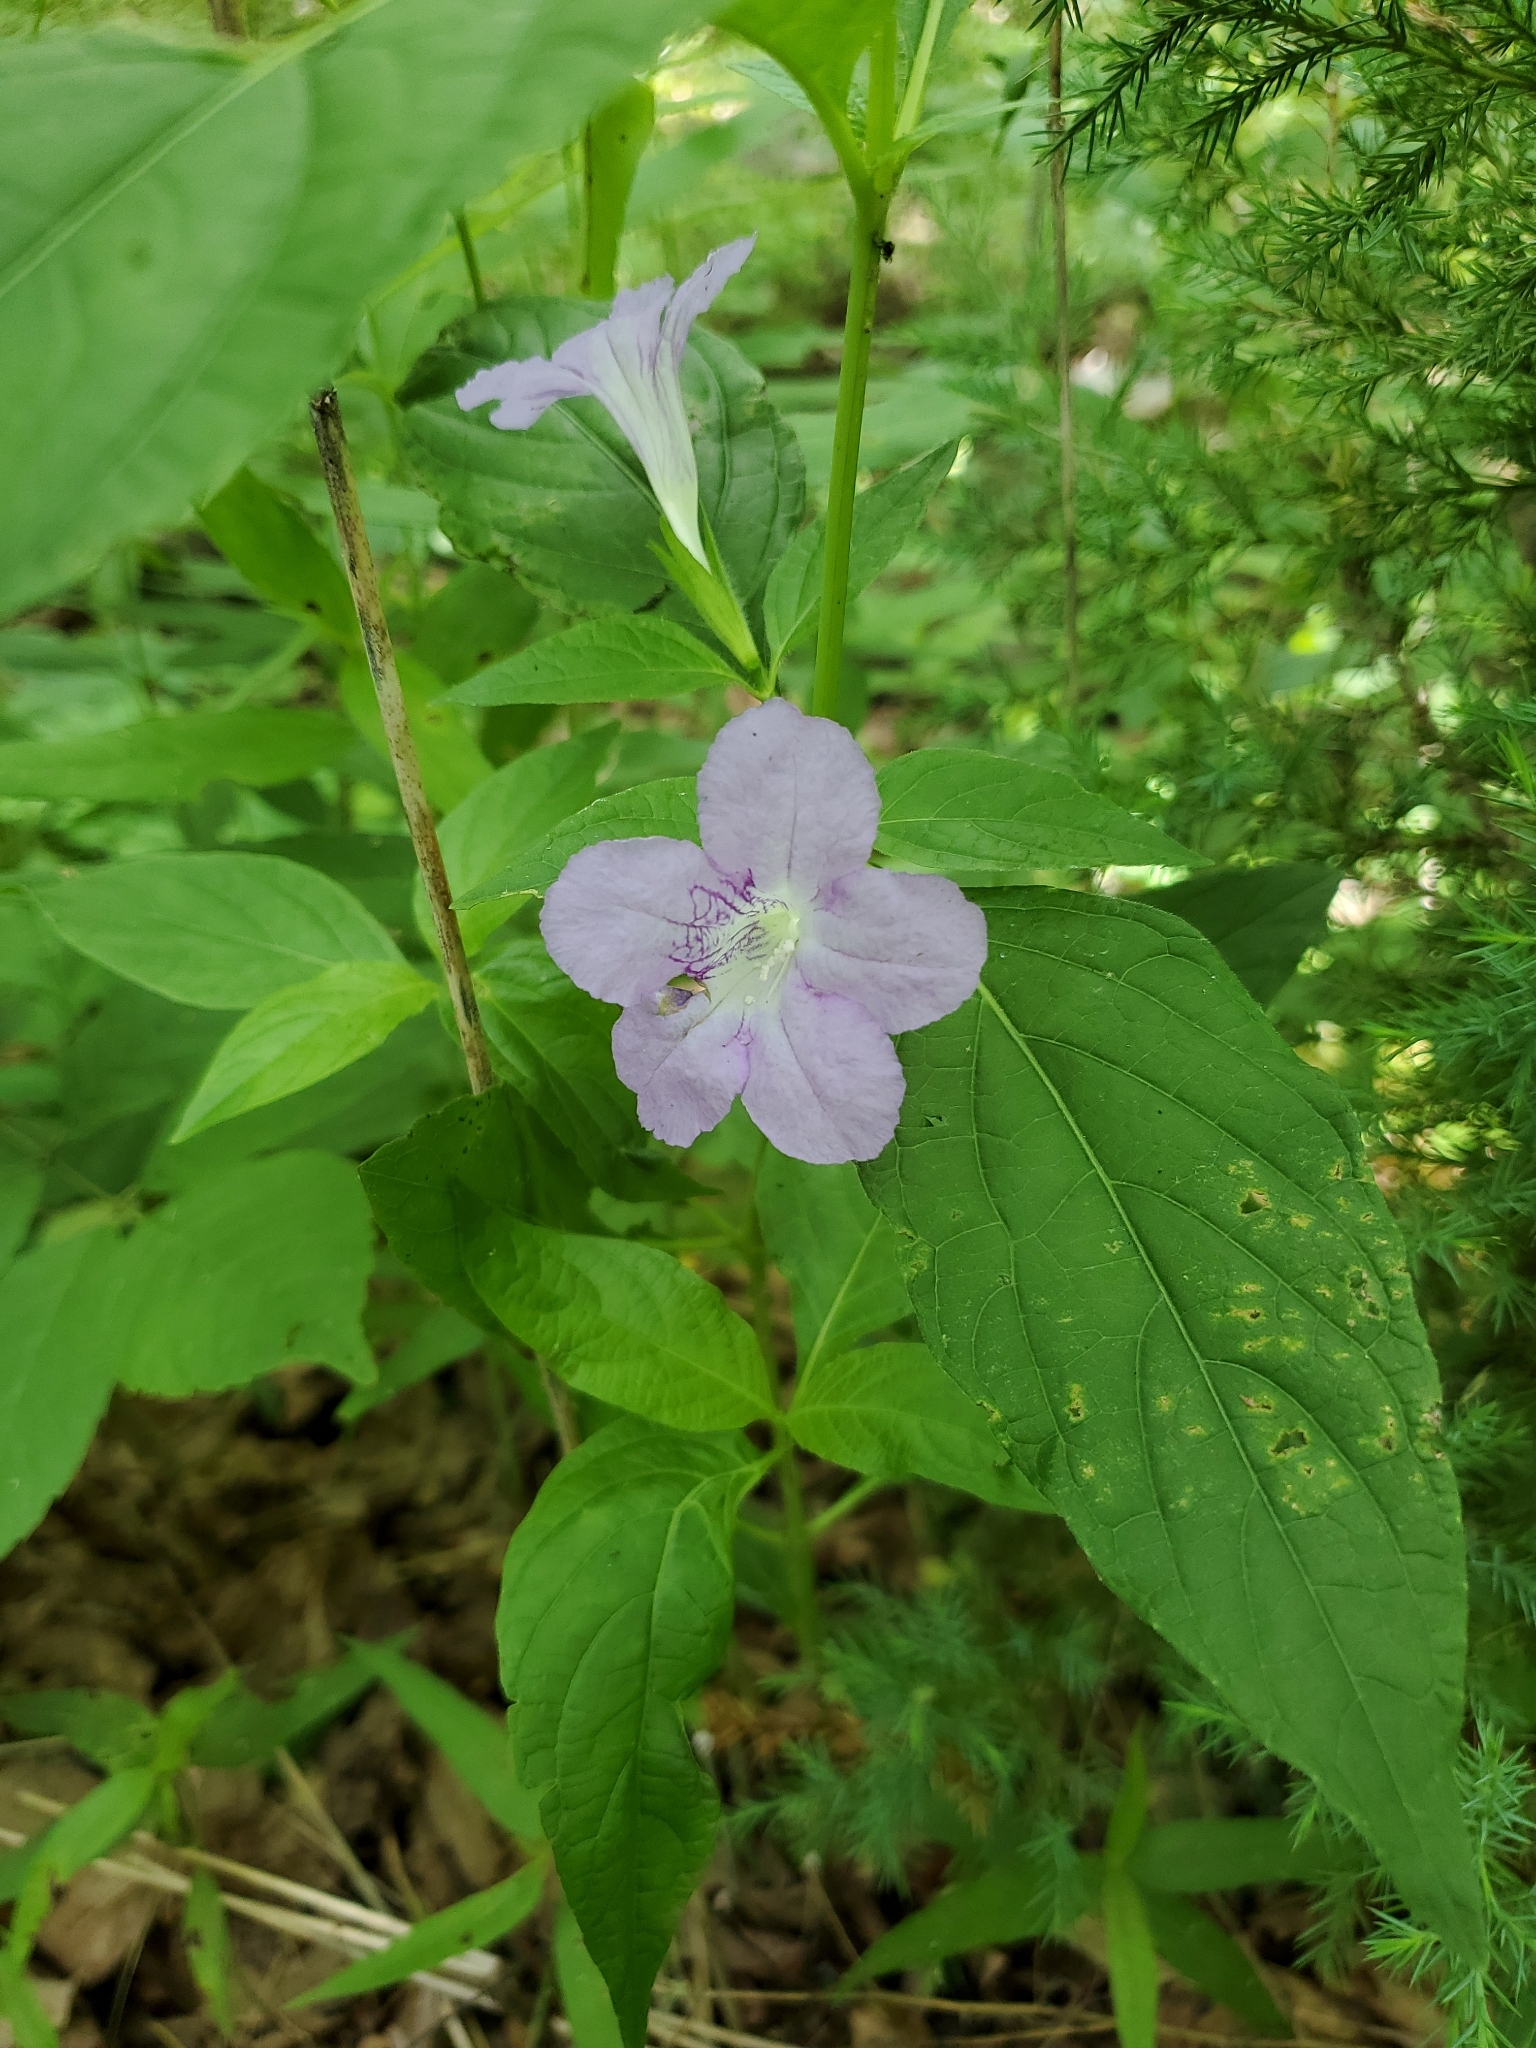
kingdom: Plantae
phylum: Tracheophyta
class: Magnoliopsida
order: Lamiales
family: Acanthaceae
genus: Ruellia
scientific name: Ruellia strepens
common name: Limestone wild petunia
